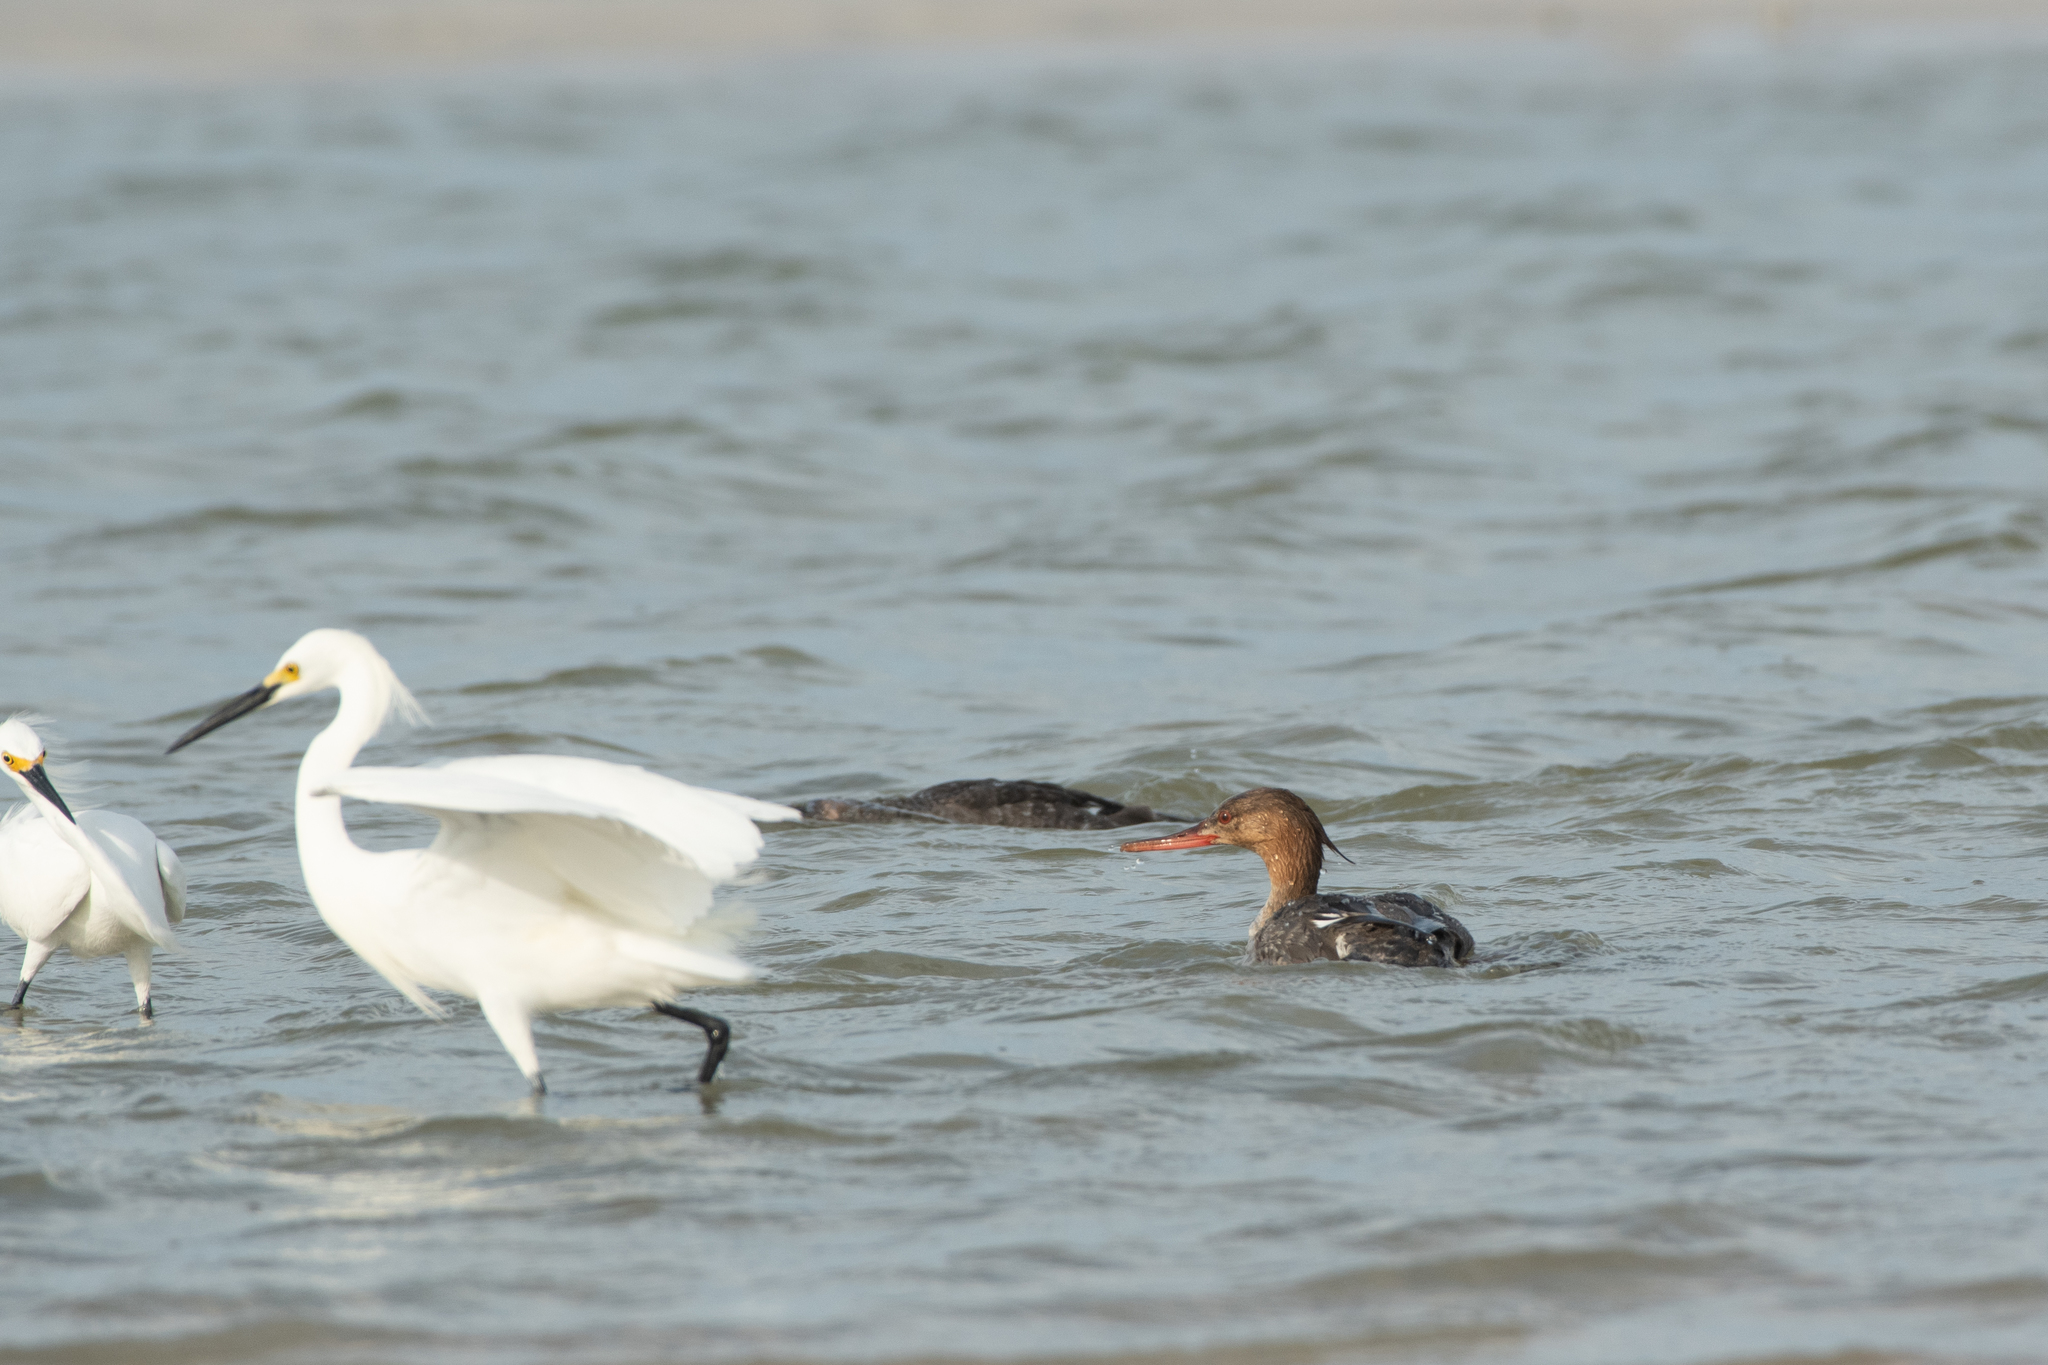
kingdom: Animalia
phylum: Chordata
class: Aves
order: Anseriformes
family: Anatidae
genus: Mergus
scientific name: Mergus serrator
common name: Red-breasted merganser
